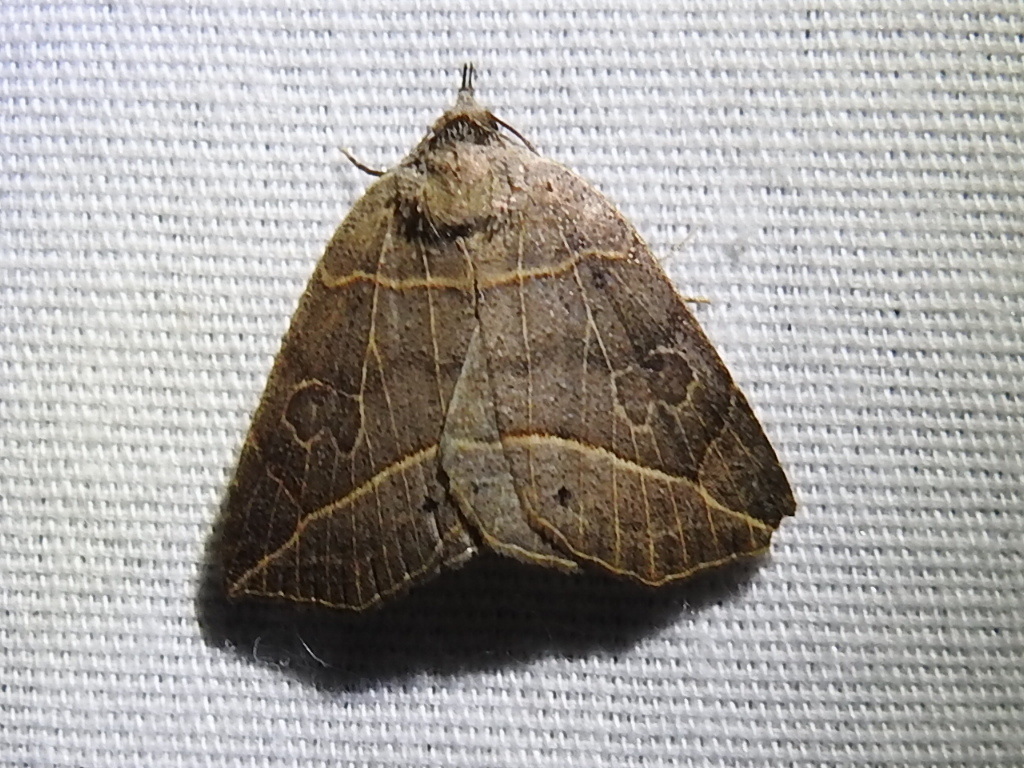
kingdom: Animalia
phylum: Arthropoda
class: Insecta
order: Lepidoptera
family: Erebidae
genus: Isogona
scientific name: Isogona tenuis
